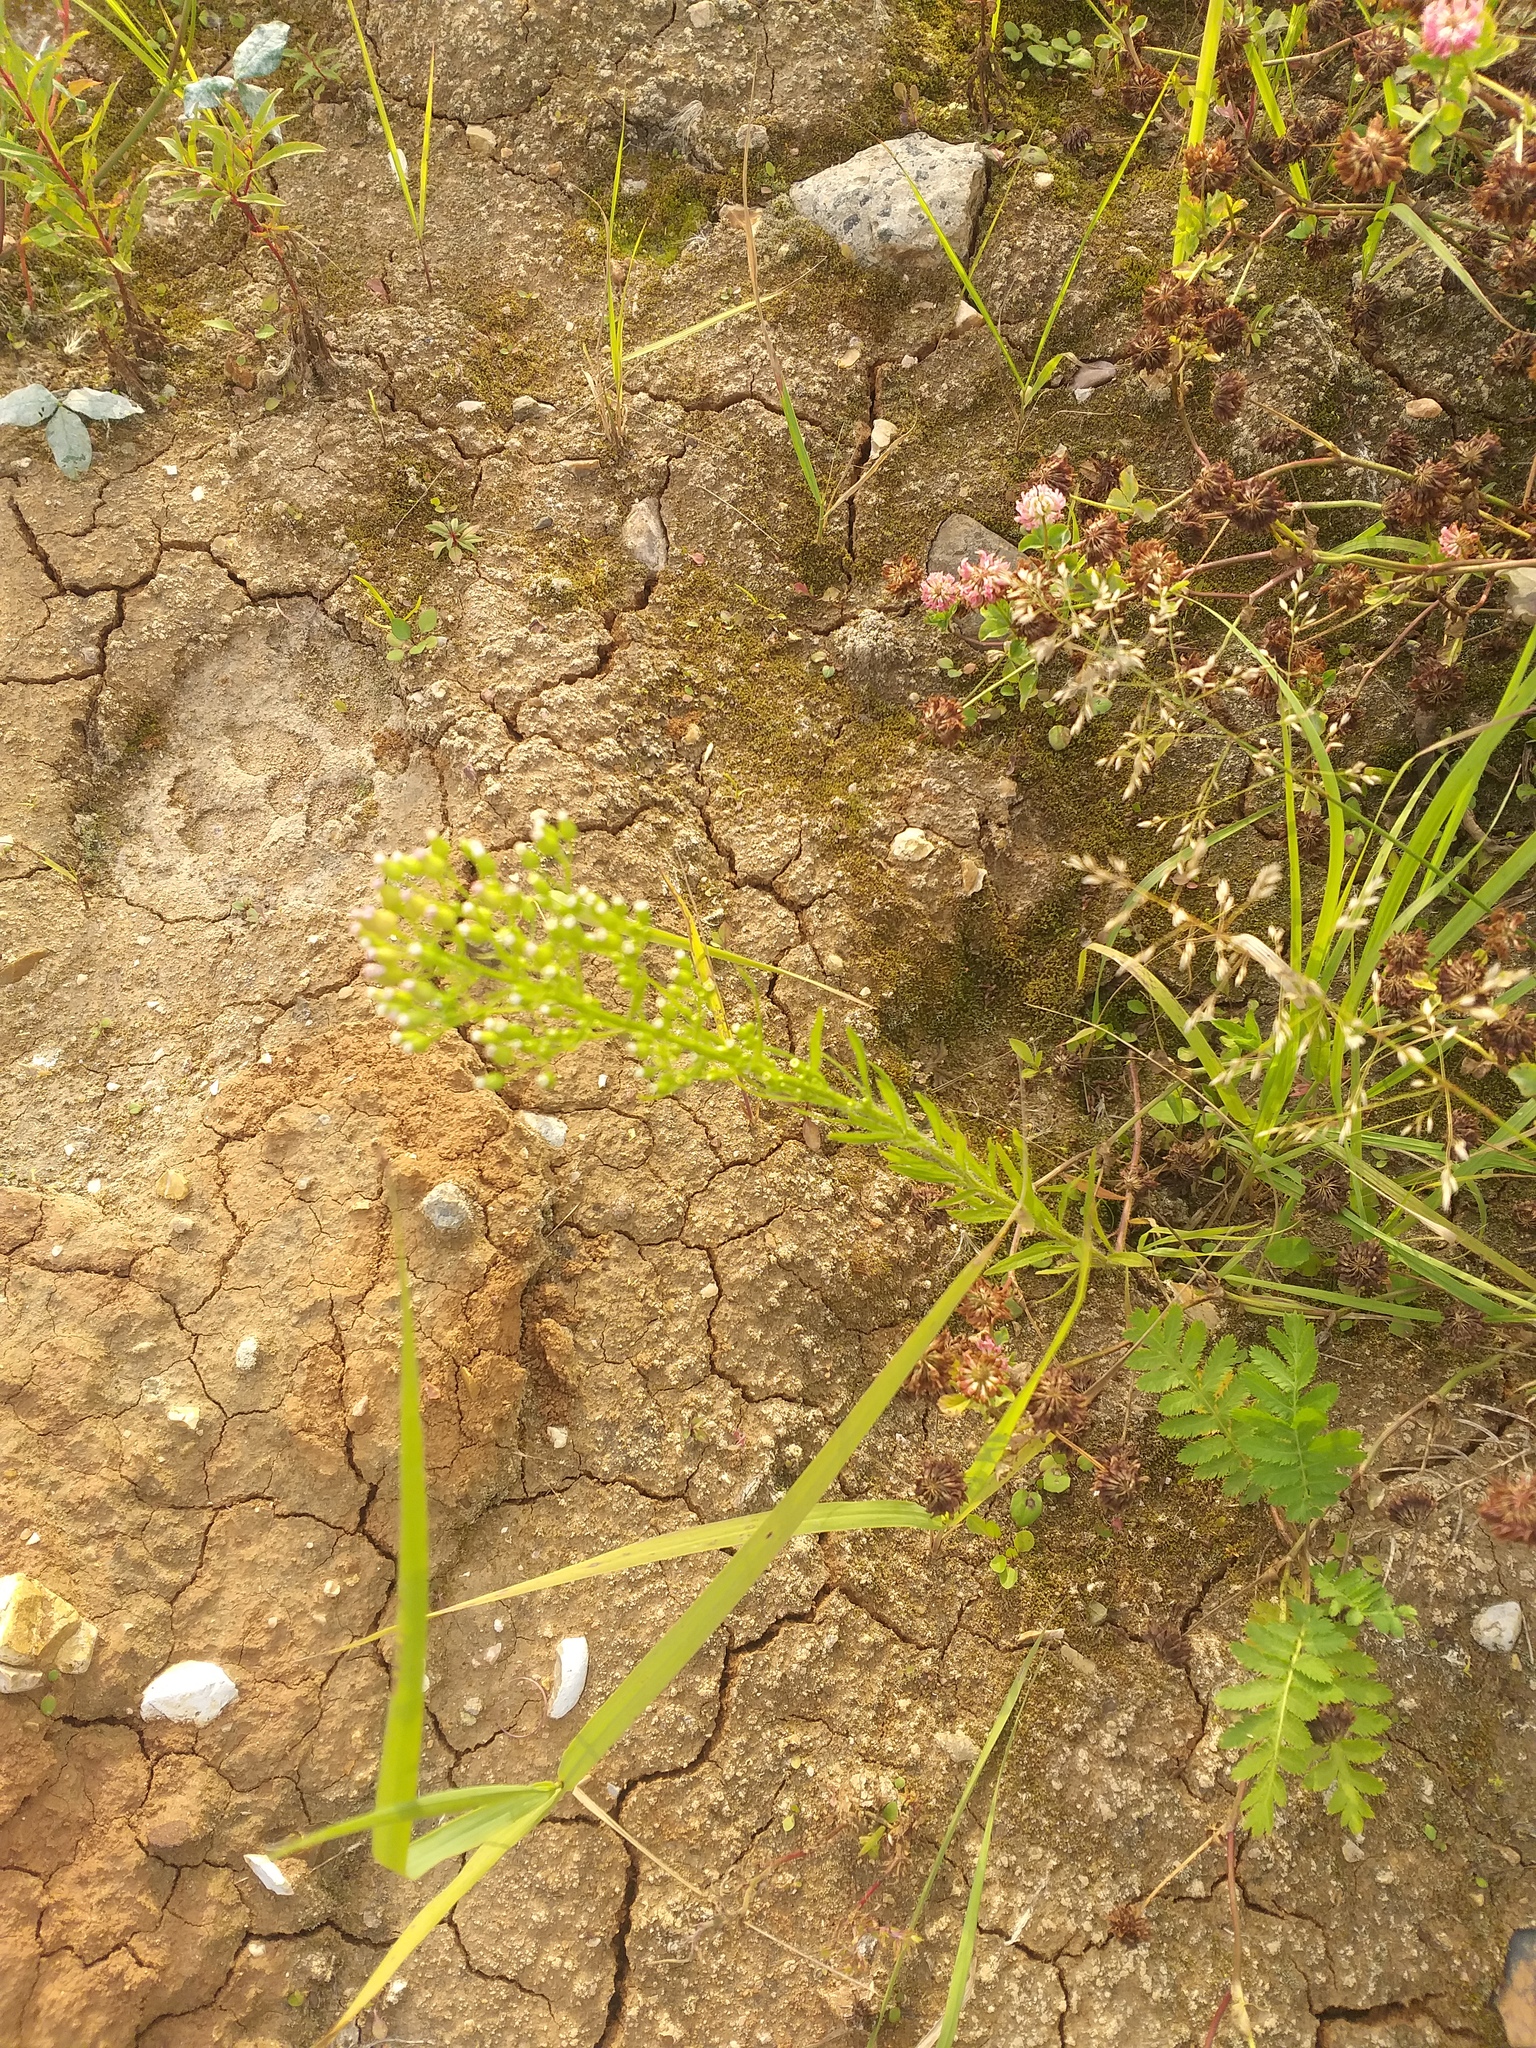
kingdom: Plantae
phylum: Tracheophyta
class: Magnoliopsida
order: Asterales
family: Asteraceae
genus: Erigeron
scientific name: Erigeron canadensis
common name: Canadian fleabane
